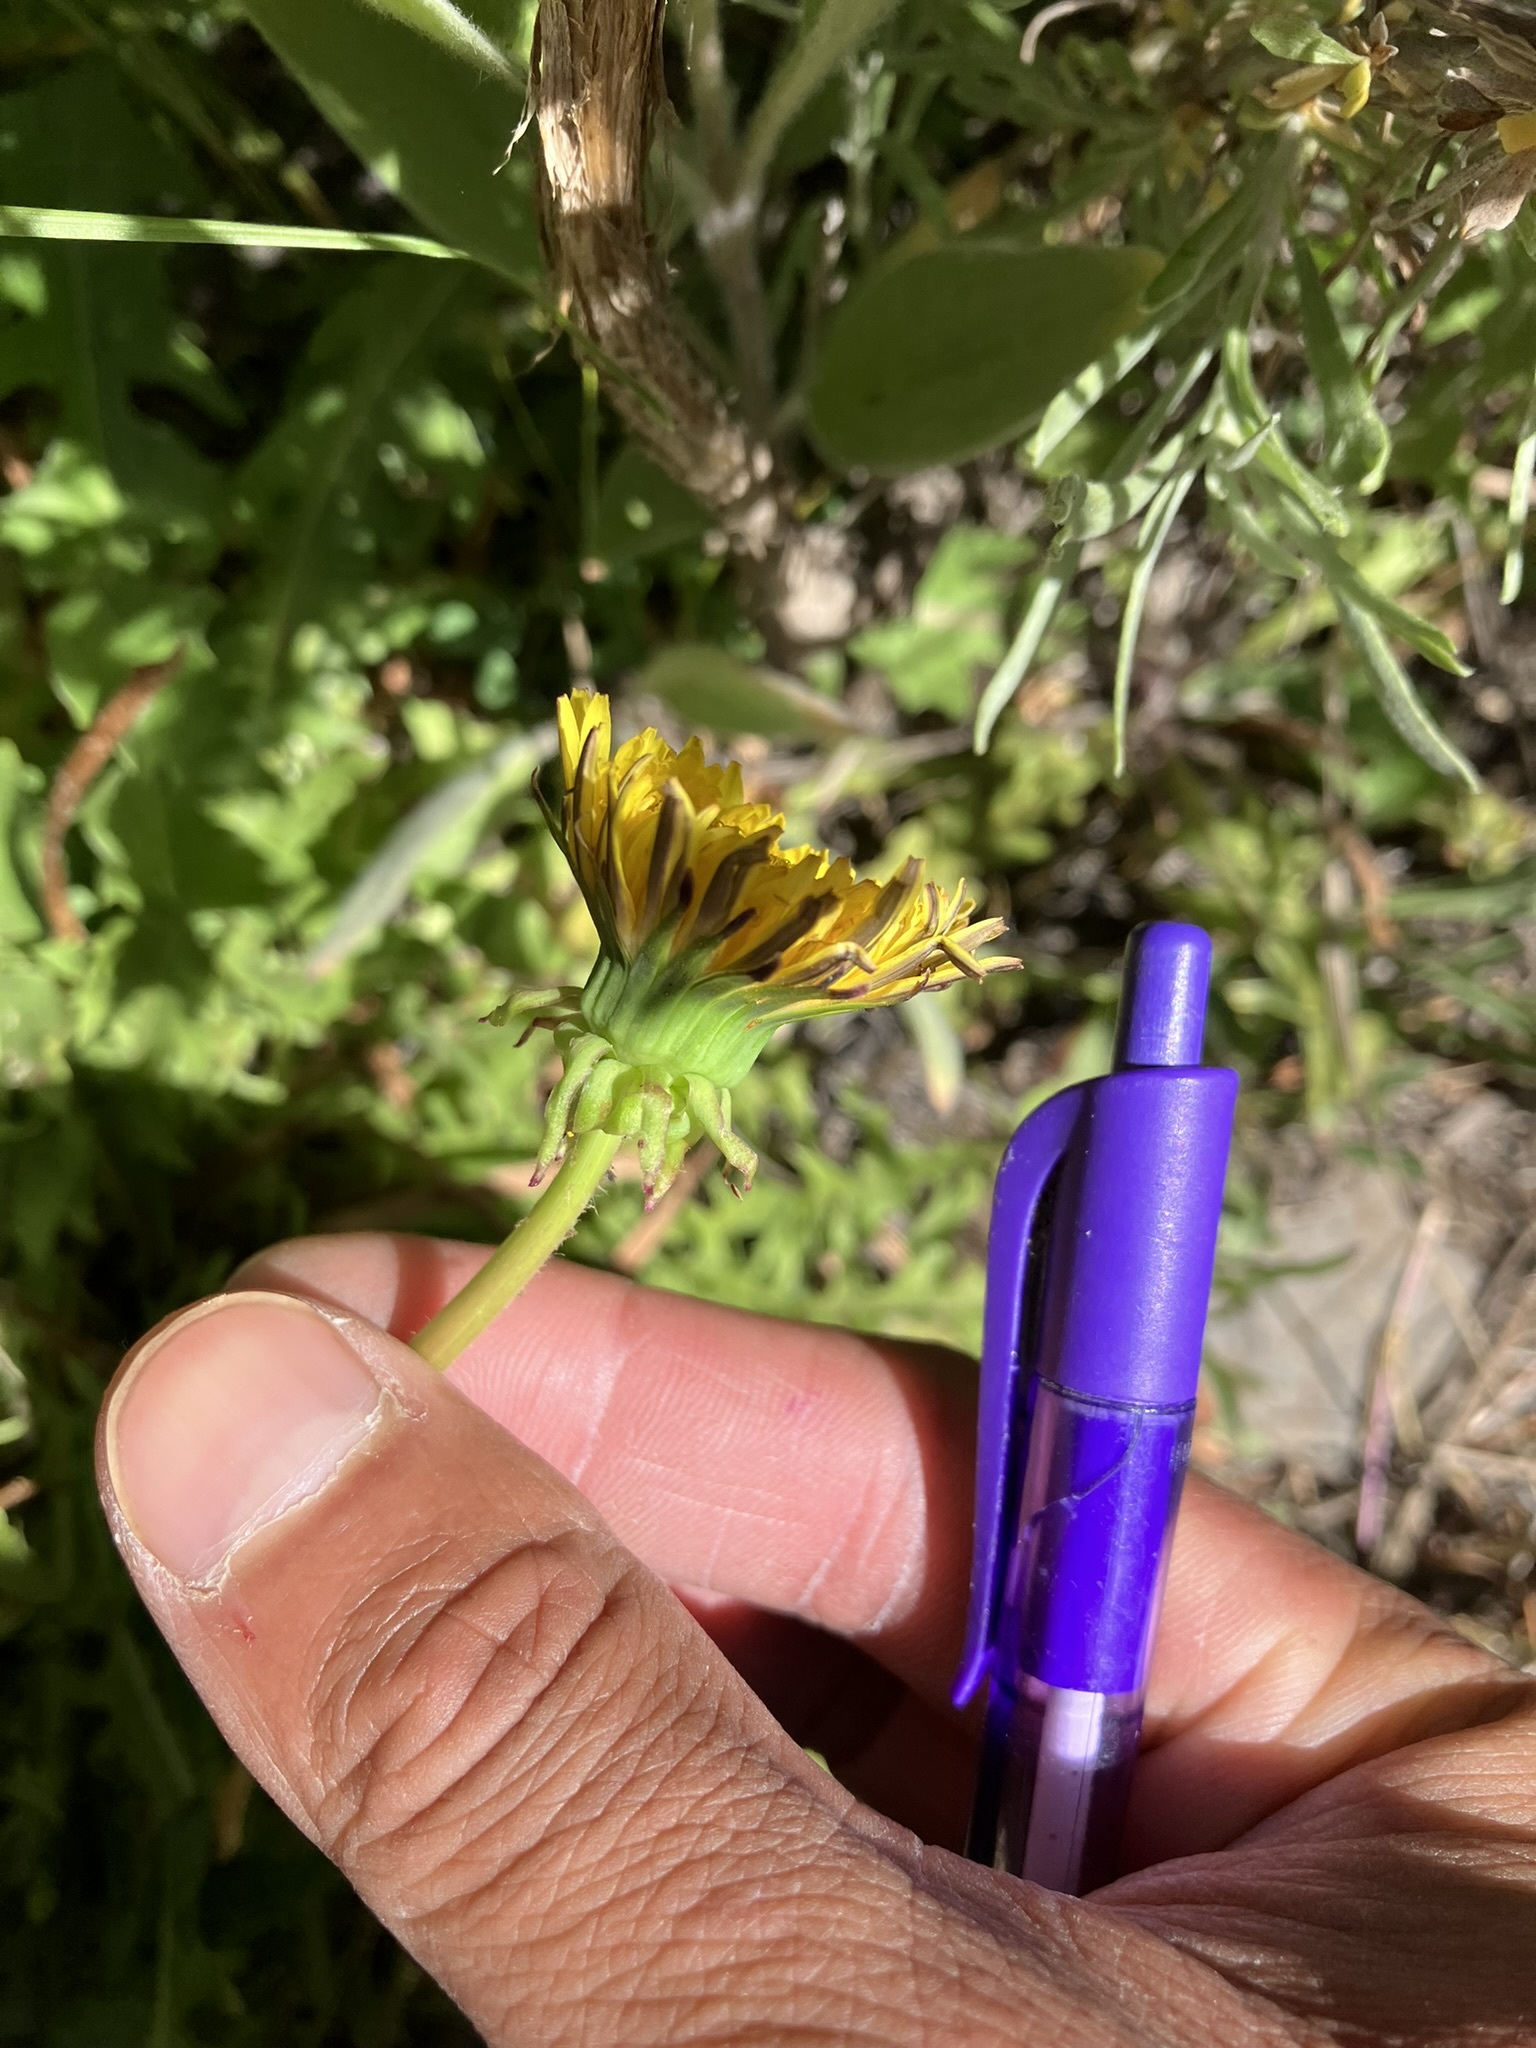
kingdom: Plantae
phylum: Tracheophyta
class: Magnoliopsida
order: Asterales
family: Asteraceae
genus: Taraxacum
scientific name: Taraxacum officinale
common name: Common dandelion
